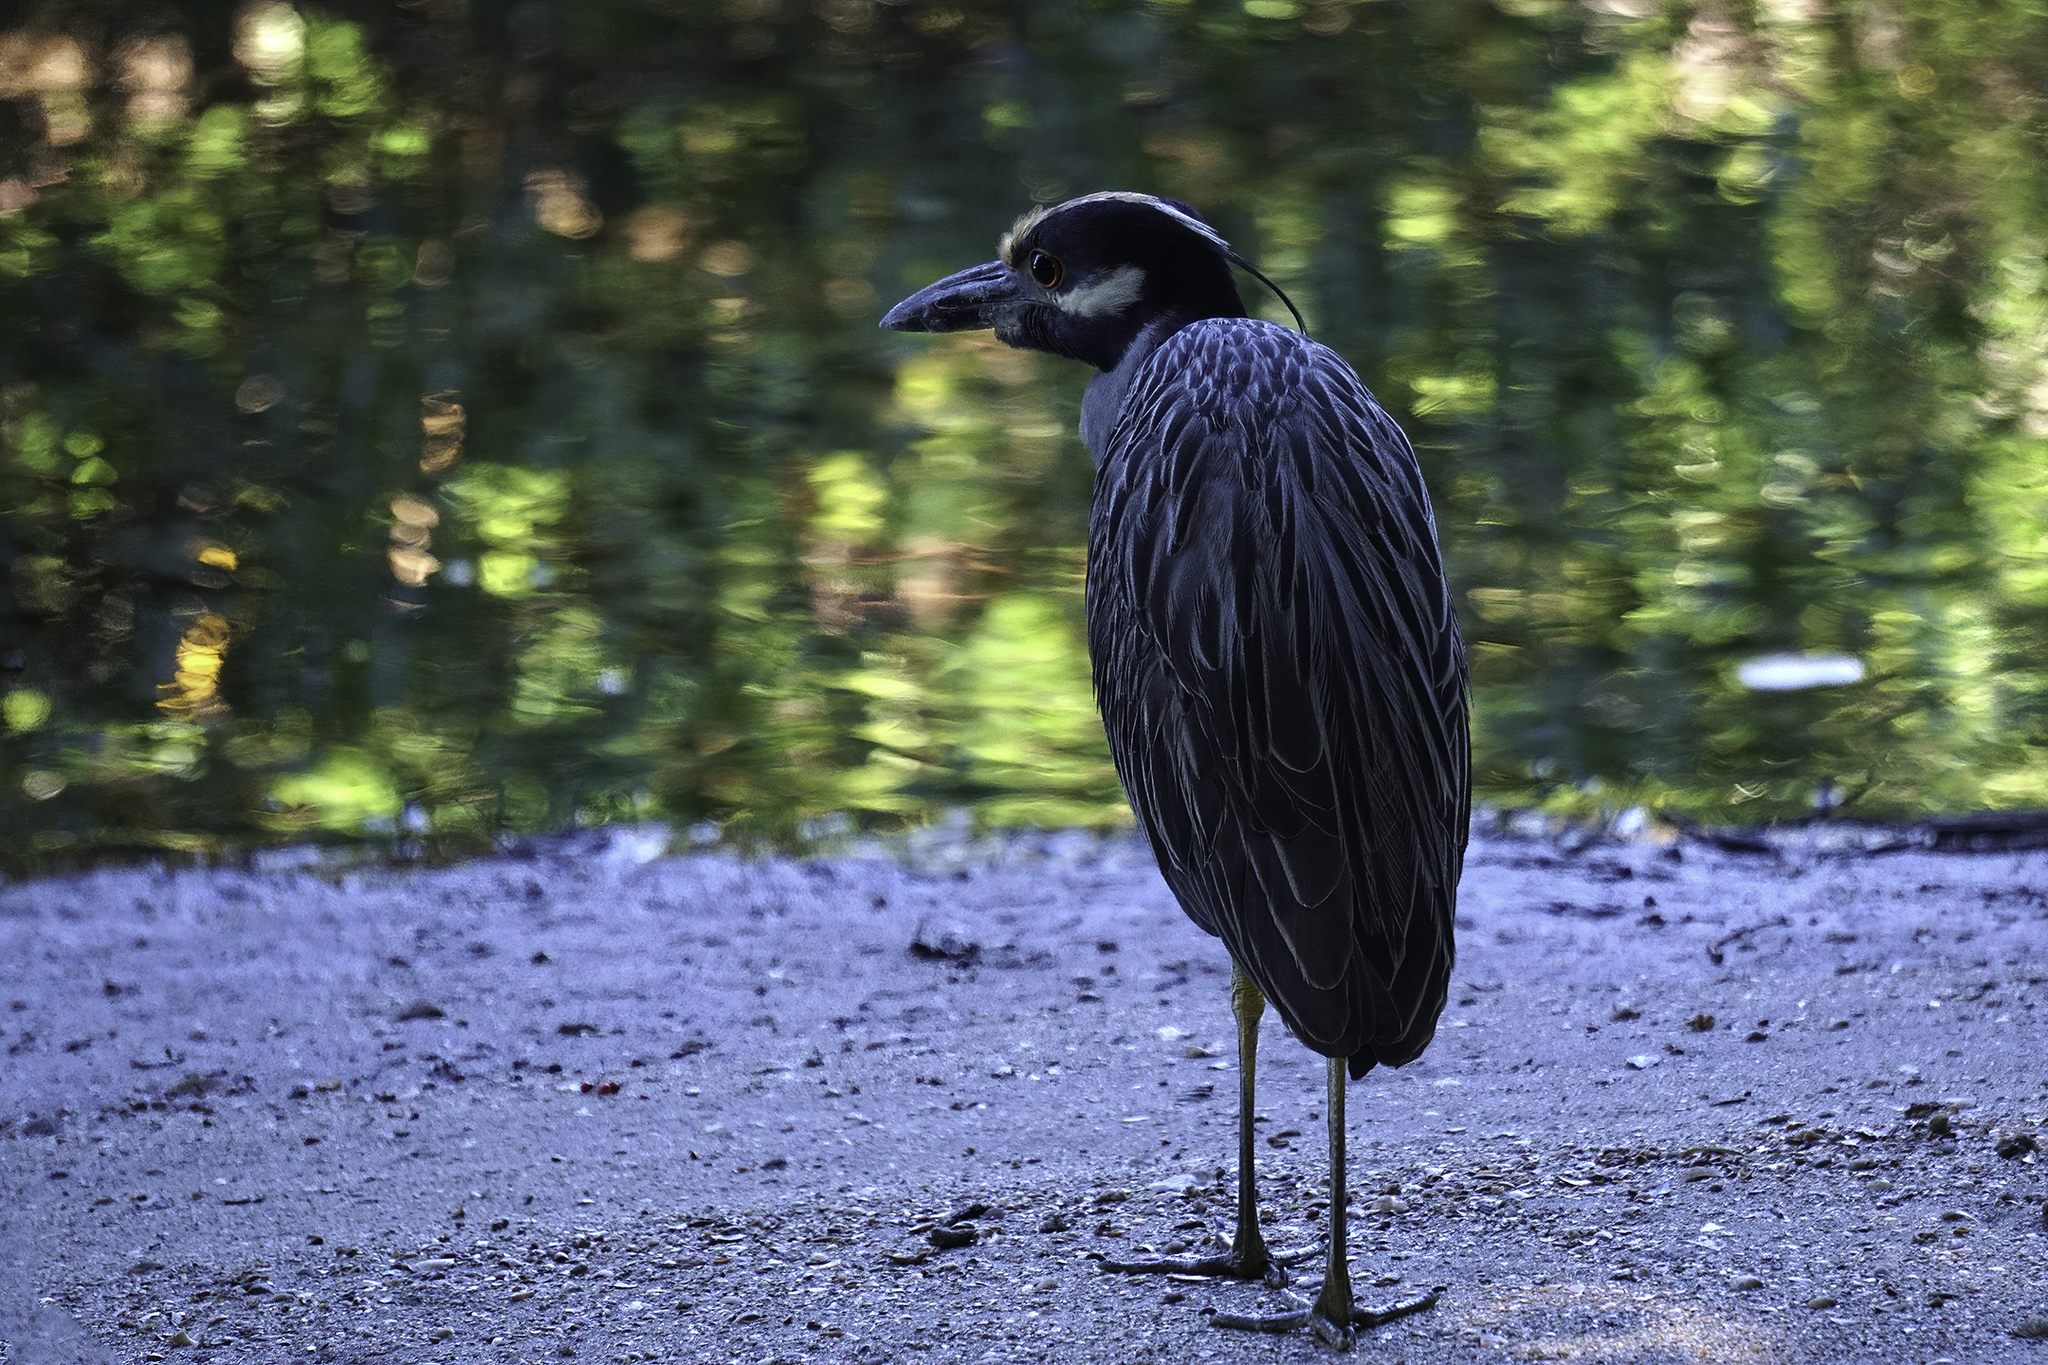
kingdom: Animalia
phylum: Chordata
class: Aves
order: Pelecaniformes
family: Ardeidae
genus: Nyctanassa
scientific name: Nyctanassa violacea
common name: Yellow-crowned night heron
